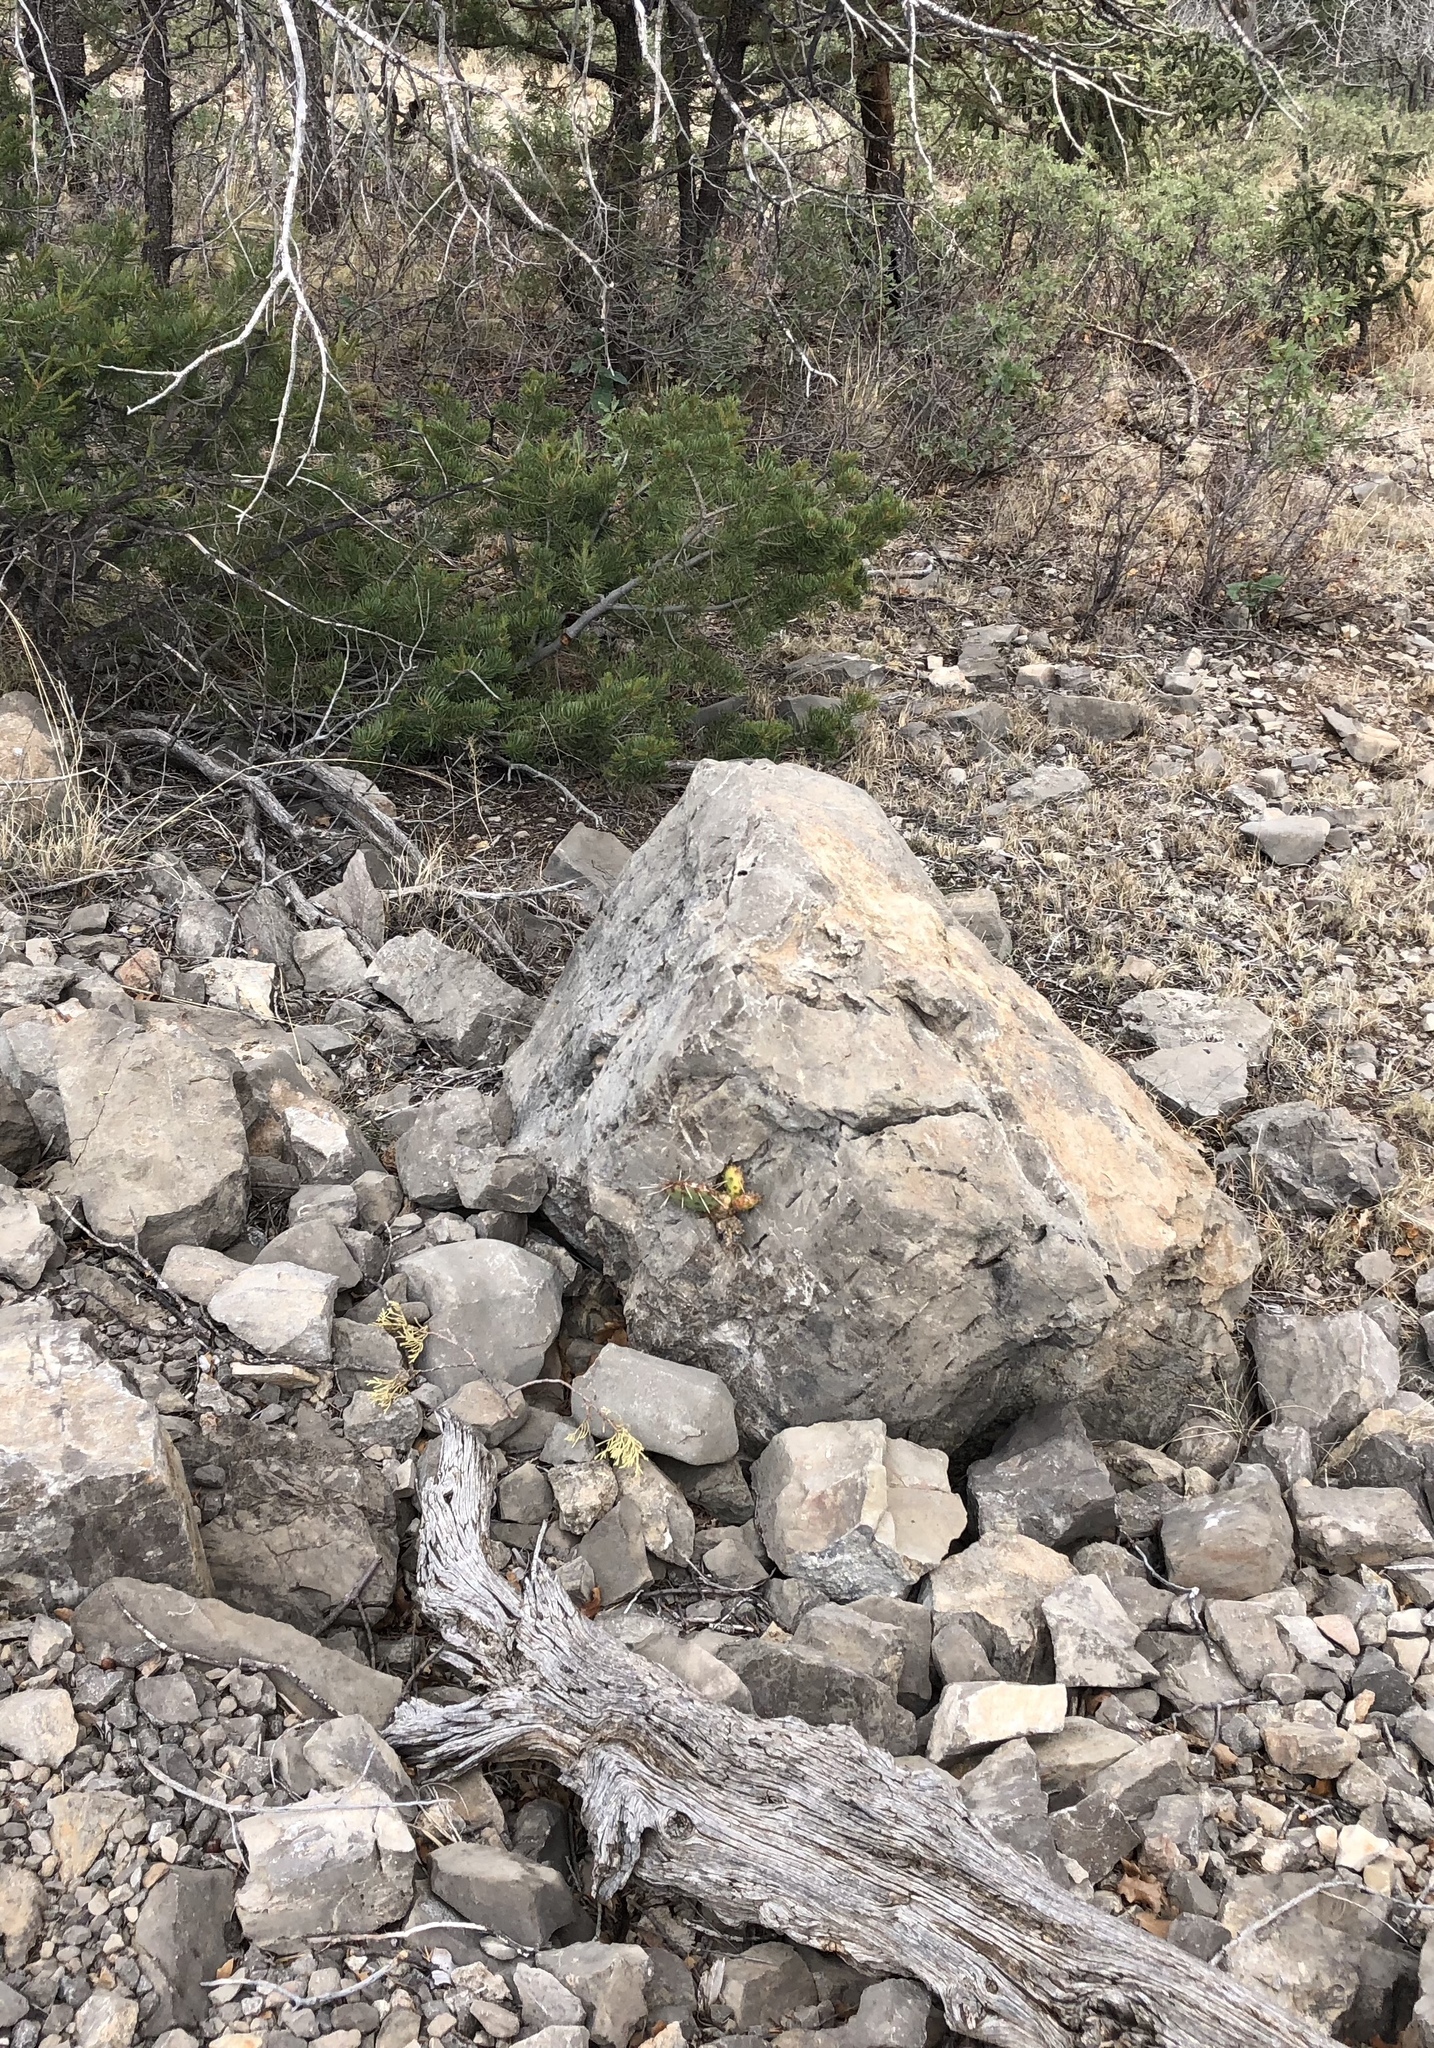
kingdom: Plantae
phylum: Tracheophyta
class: Magnoliopsida
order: Caryophyllales
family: Cactaceae
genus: Opuntia
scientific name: Opuntia phaeacantha
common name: New mexico prickly-pear
